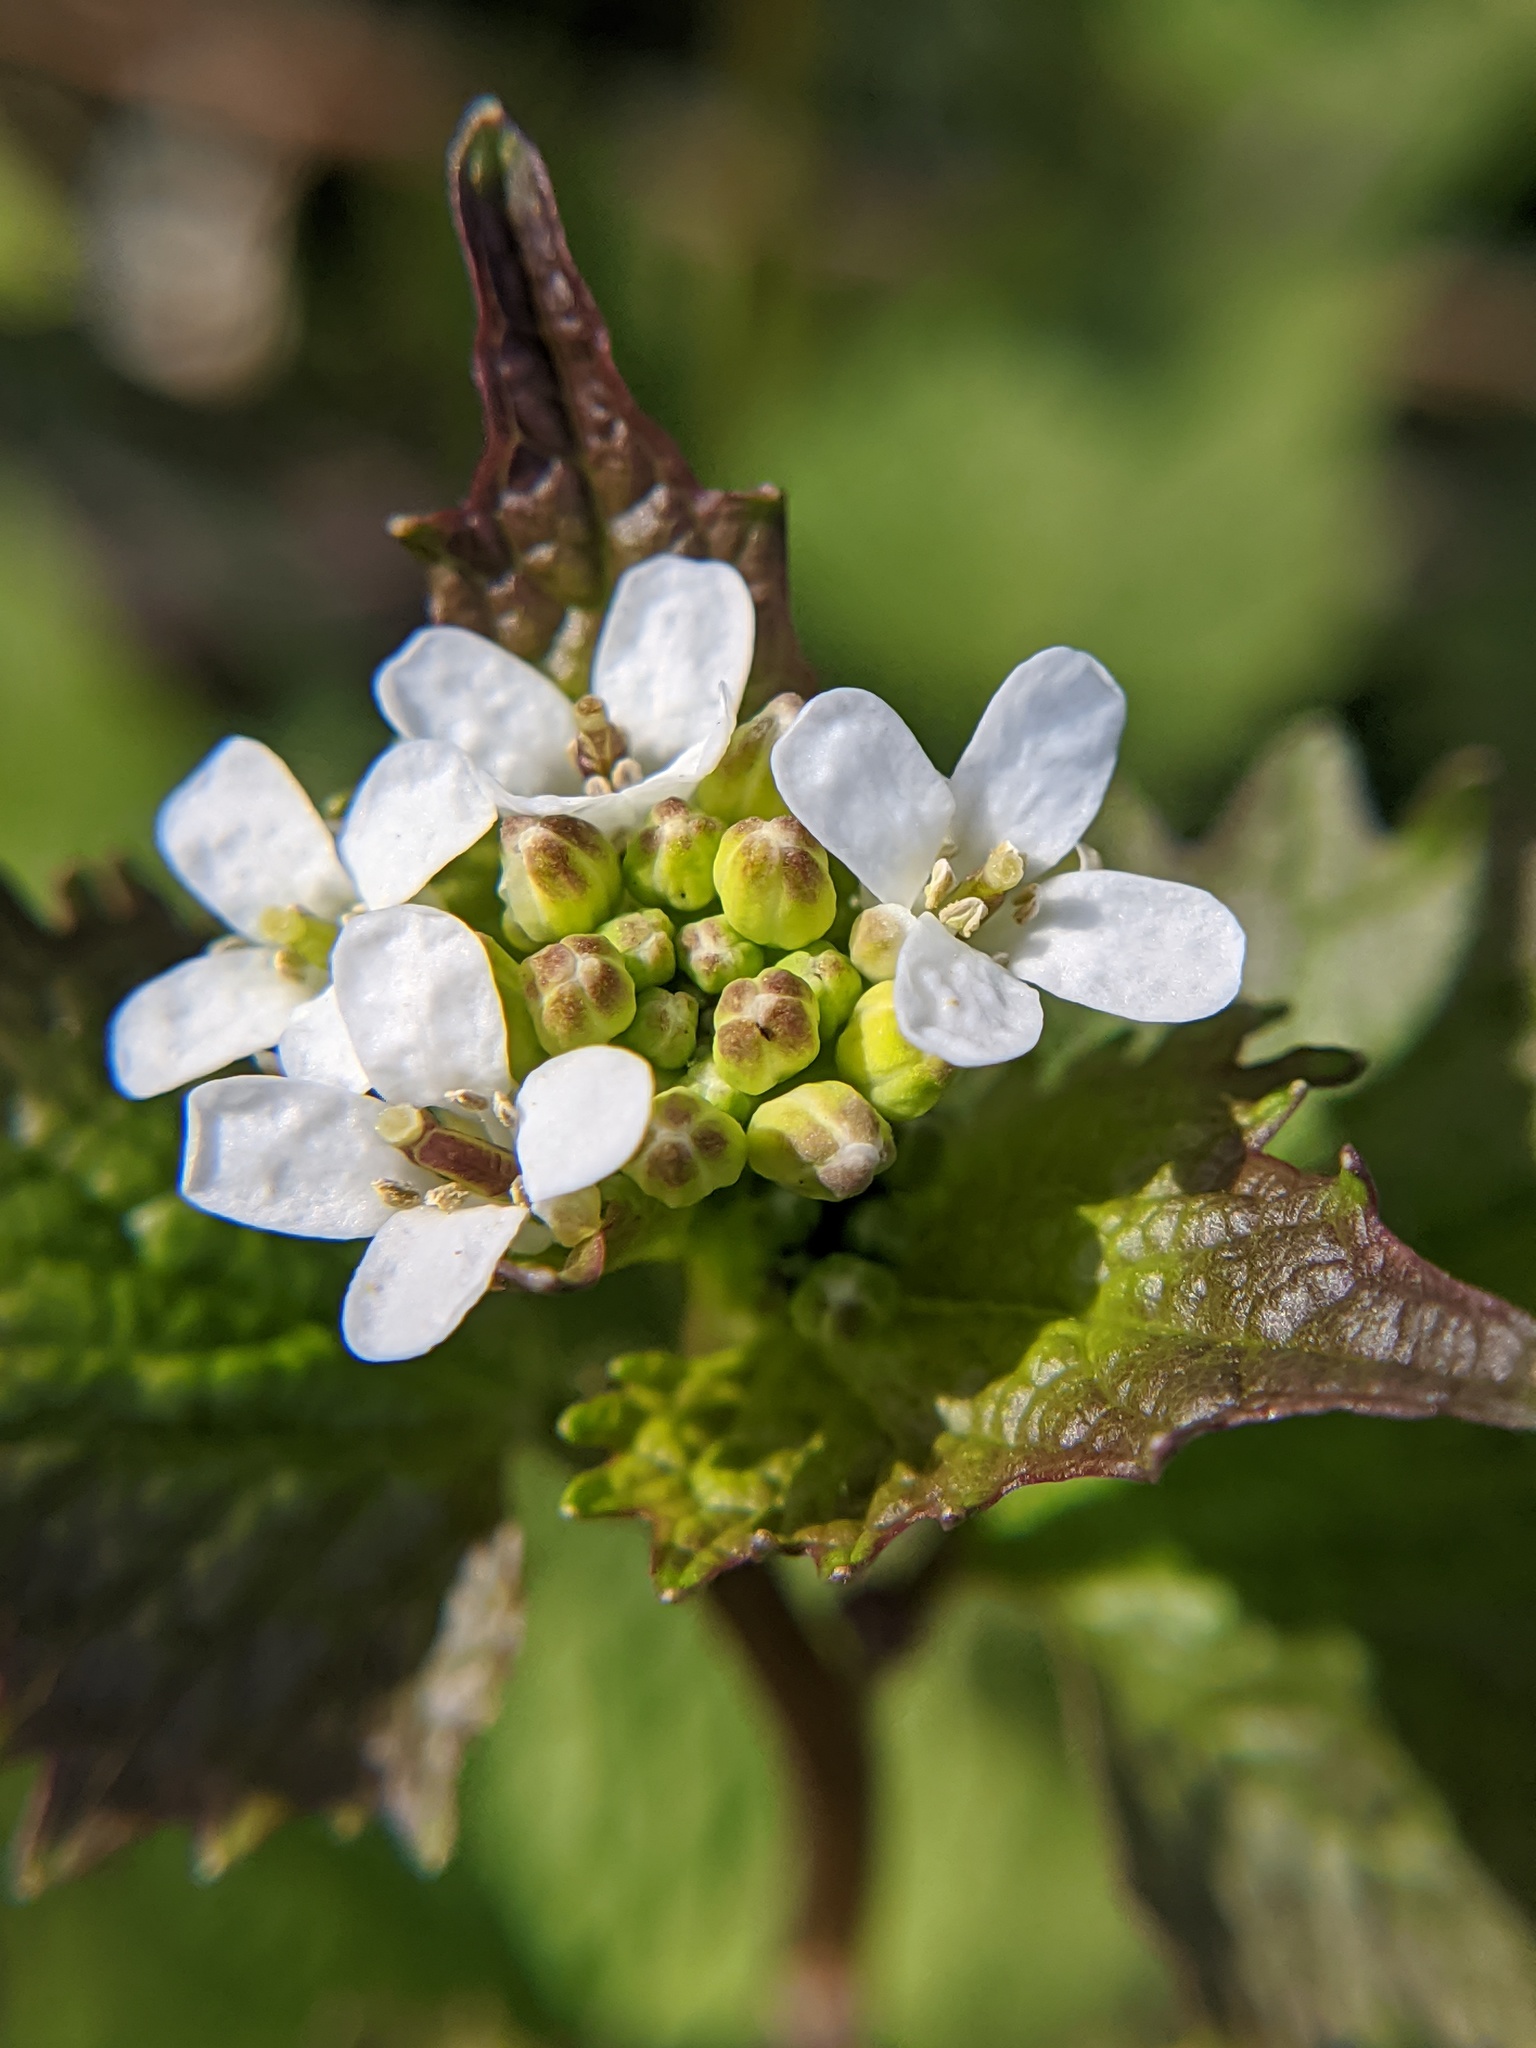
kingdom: Plantae
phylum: Tracheophyta
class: Magnoliopsida
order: Brassicales
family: Brassicaceae
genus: Alliaria
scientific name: Alliaria petiolata
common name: Garlic mustard
